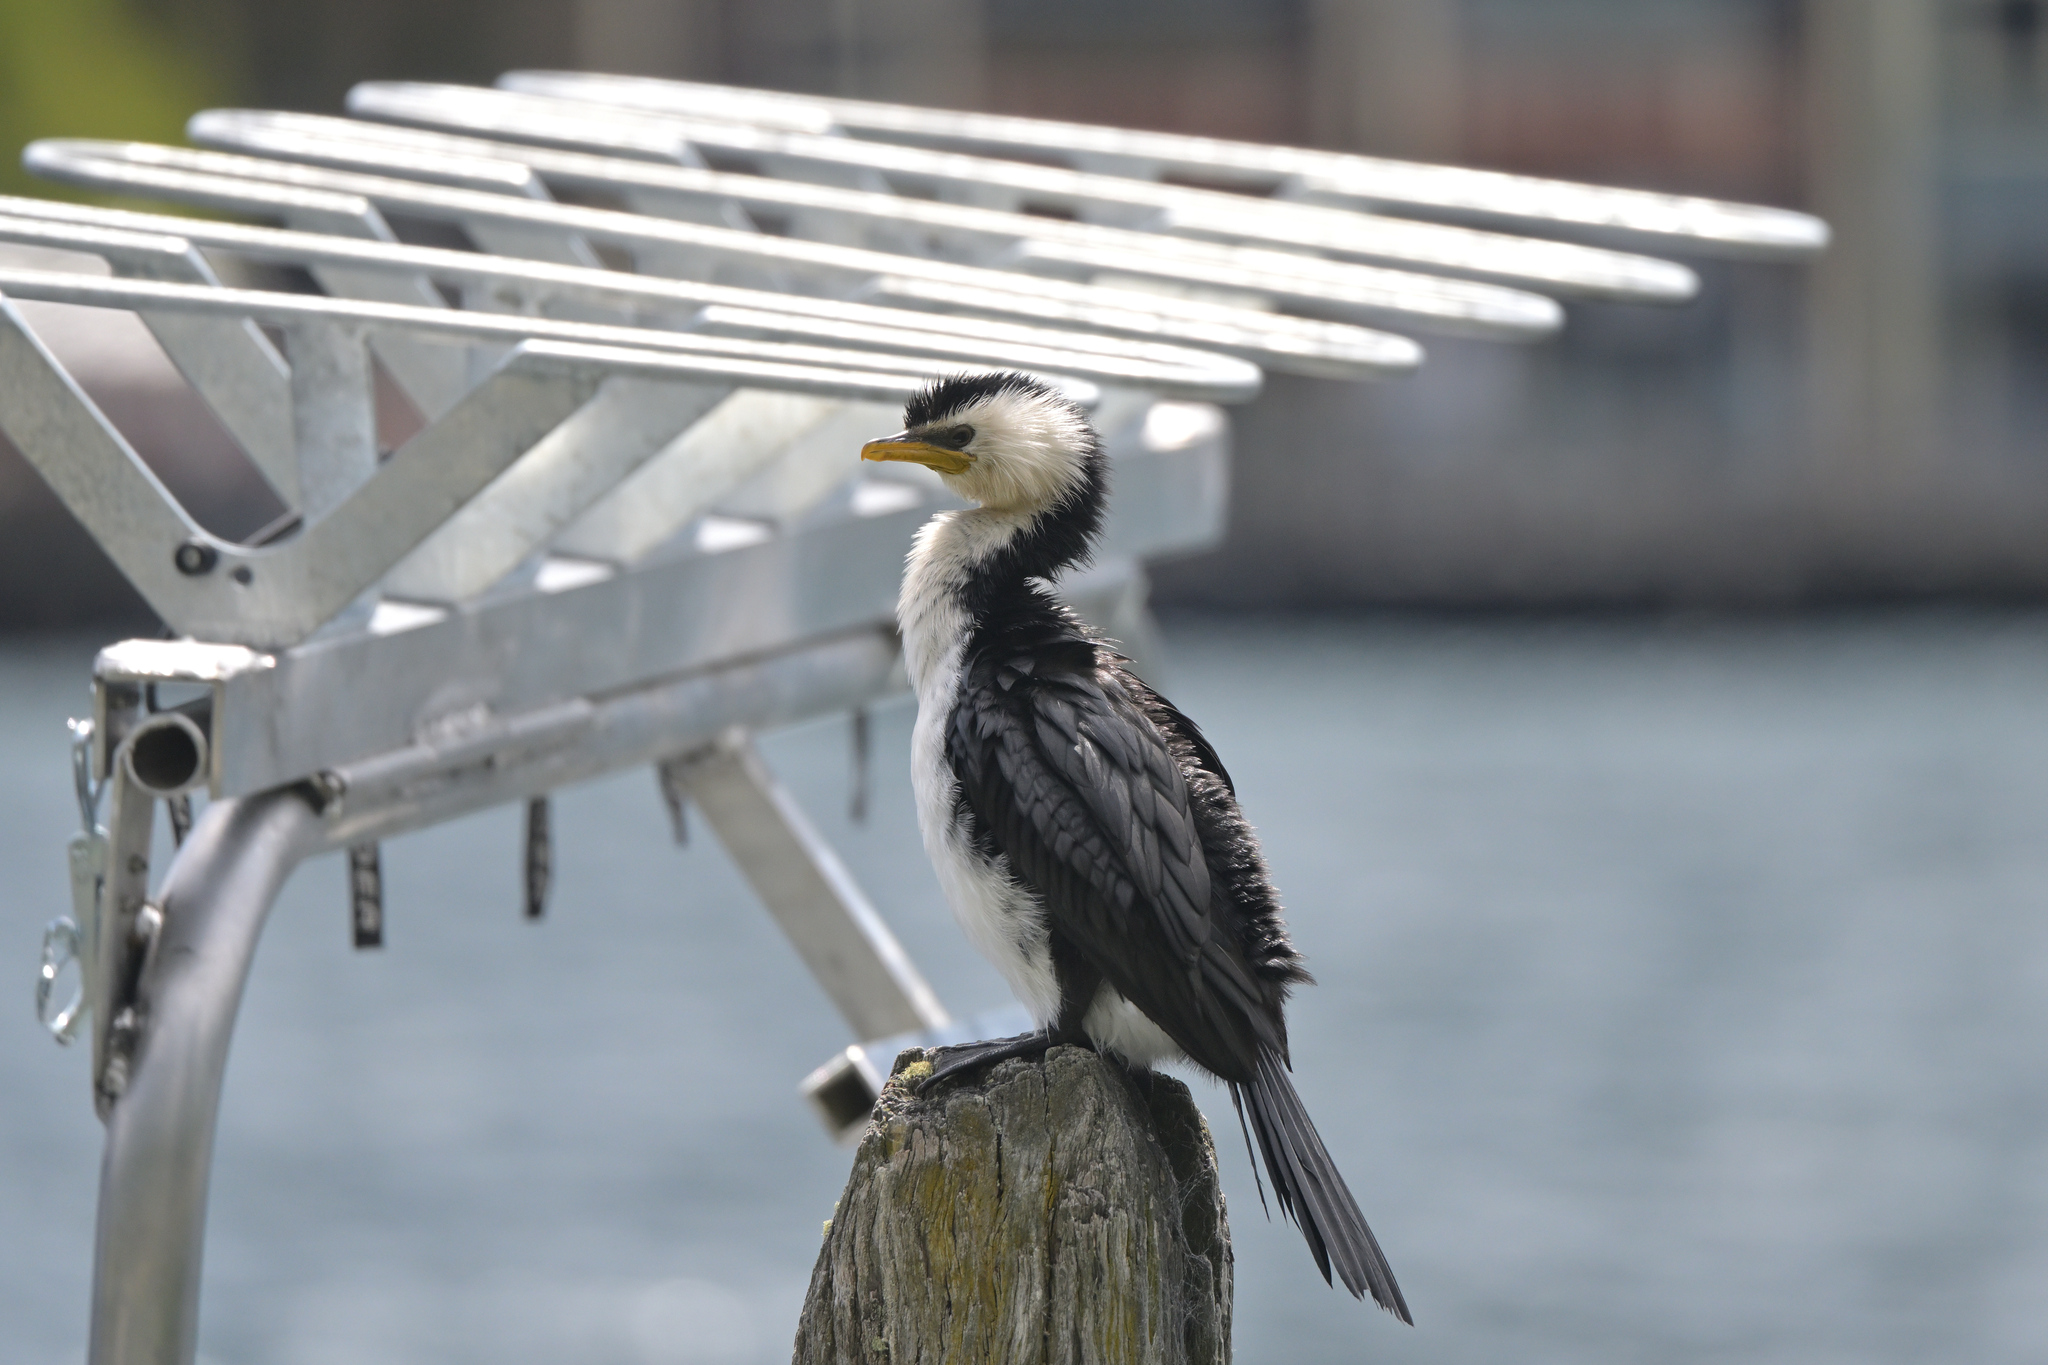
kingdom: Animalia
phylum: Chordata
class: Aves
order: Suliformes
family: Phalacrocoracidae
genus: Microcarbo
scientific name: Microcarbo melanoleucos
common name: Little pied cormorant
